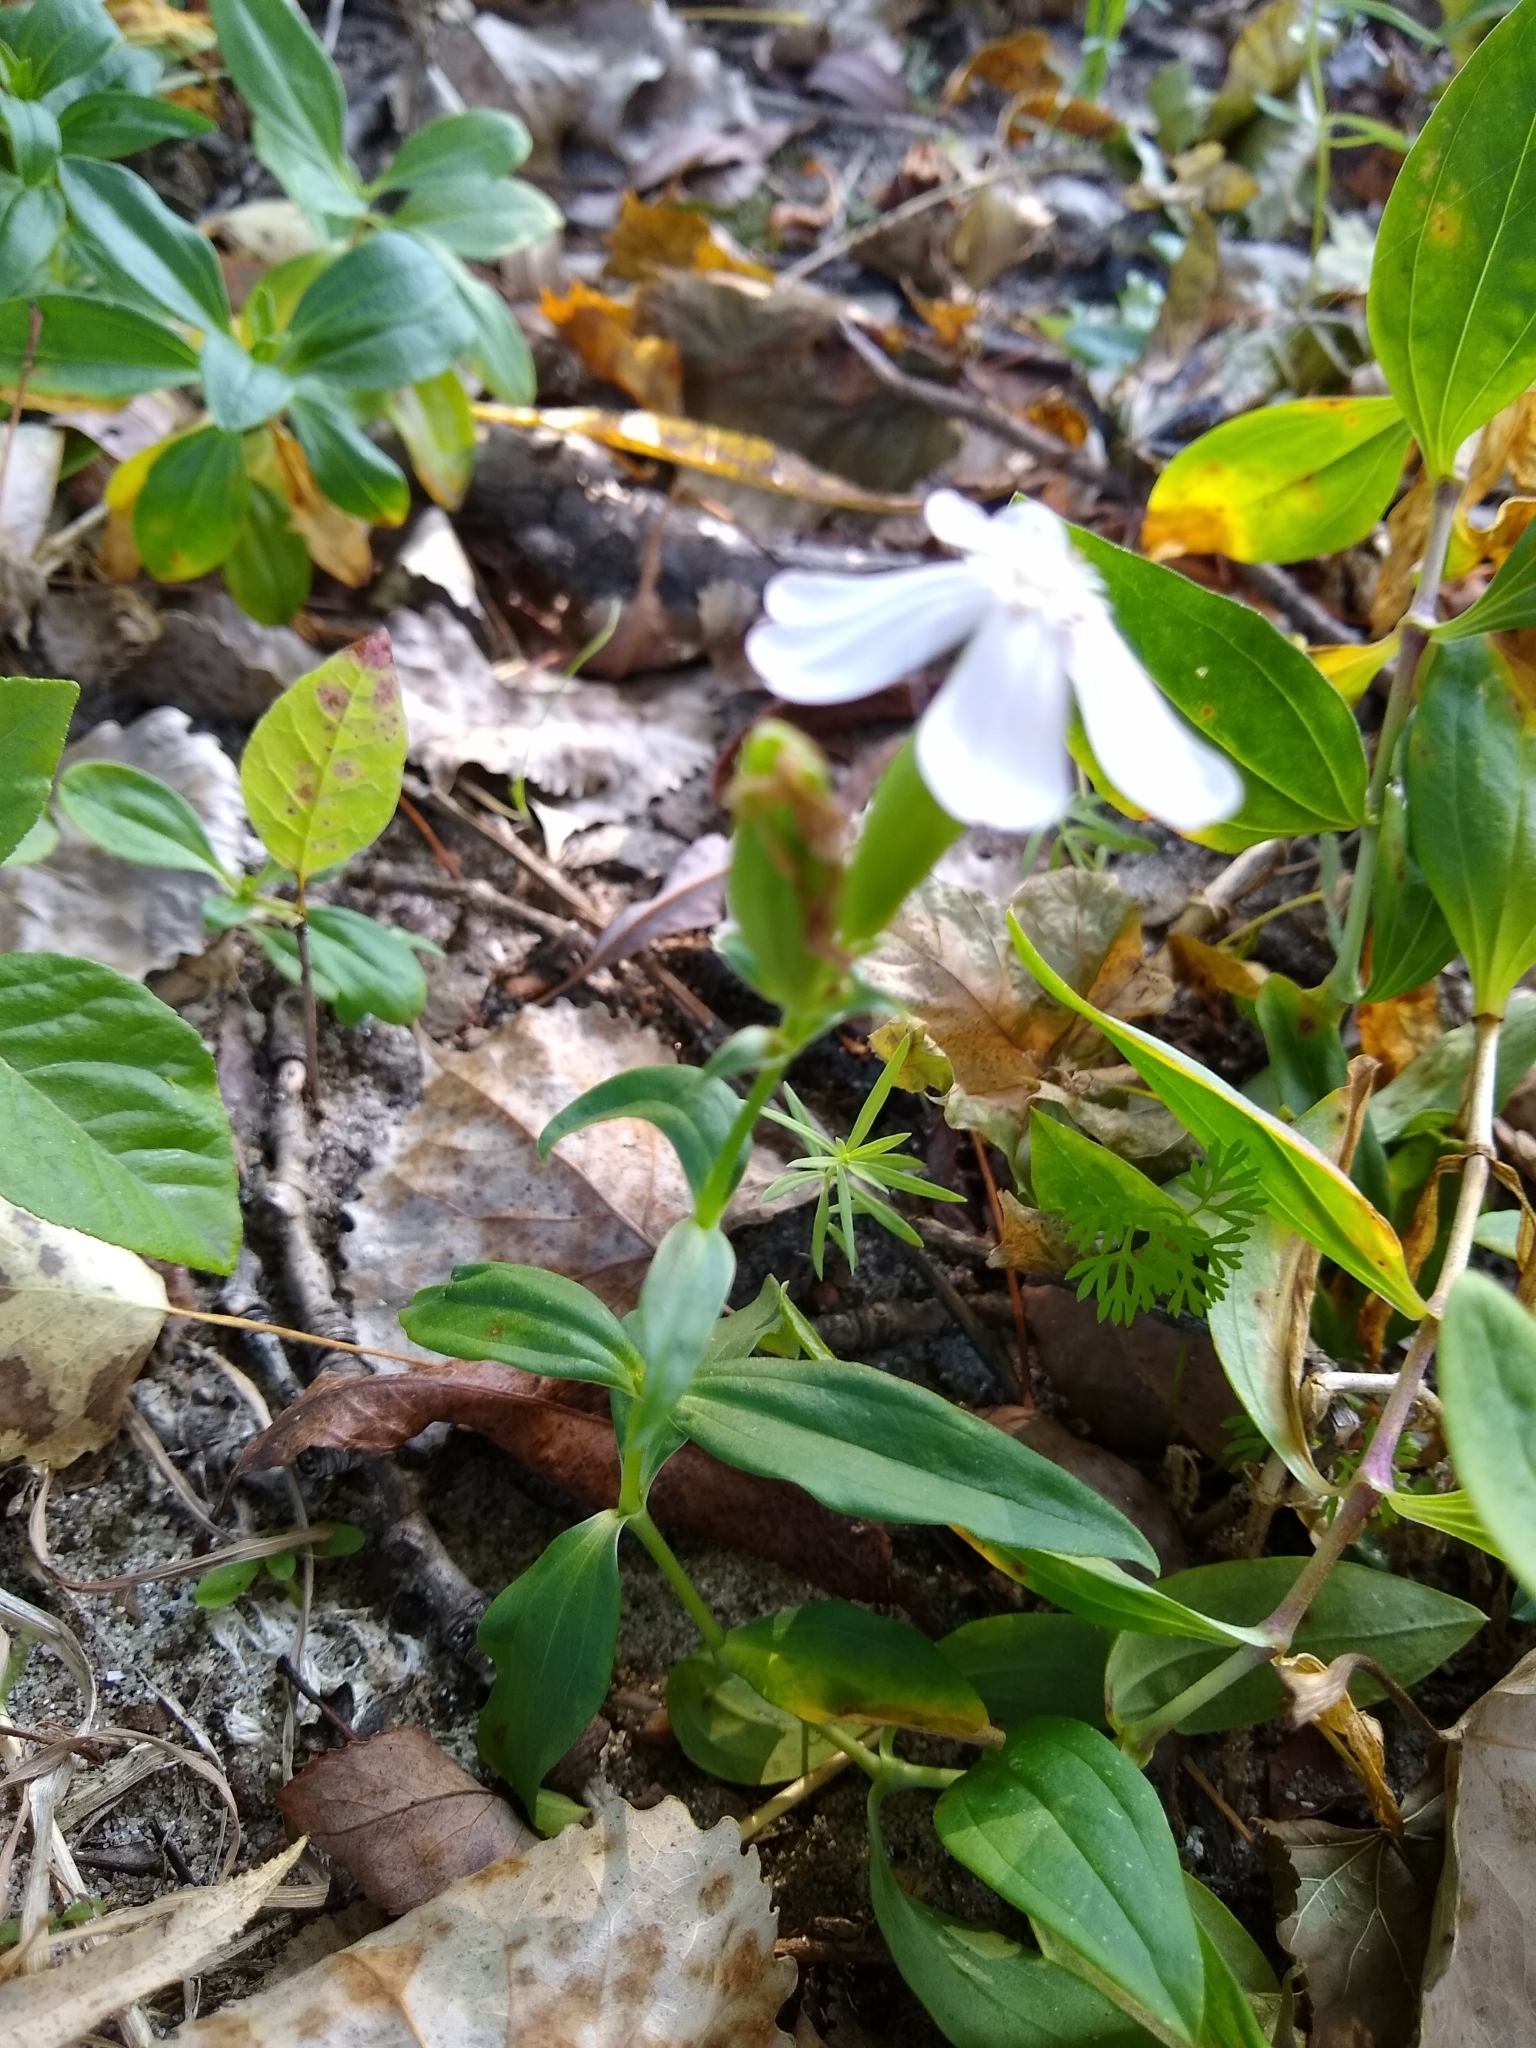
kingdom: Plantae
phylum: Tracheophyta
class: Magnoliopsida
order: Caryophyllales
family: Caryophyllaceae
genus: Saponaria
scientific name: Saponaria officinalis
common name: Soapwort
